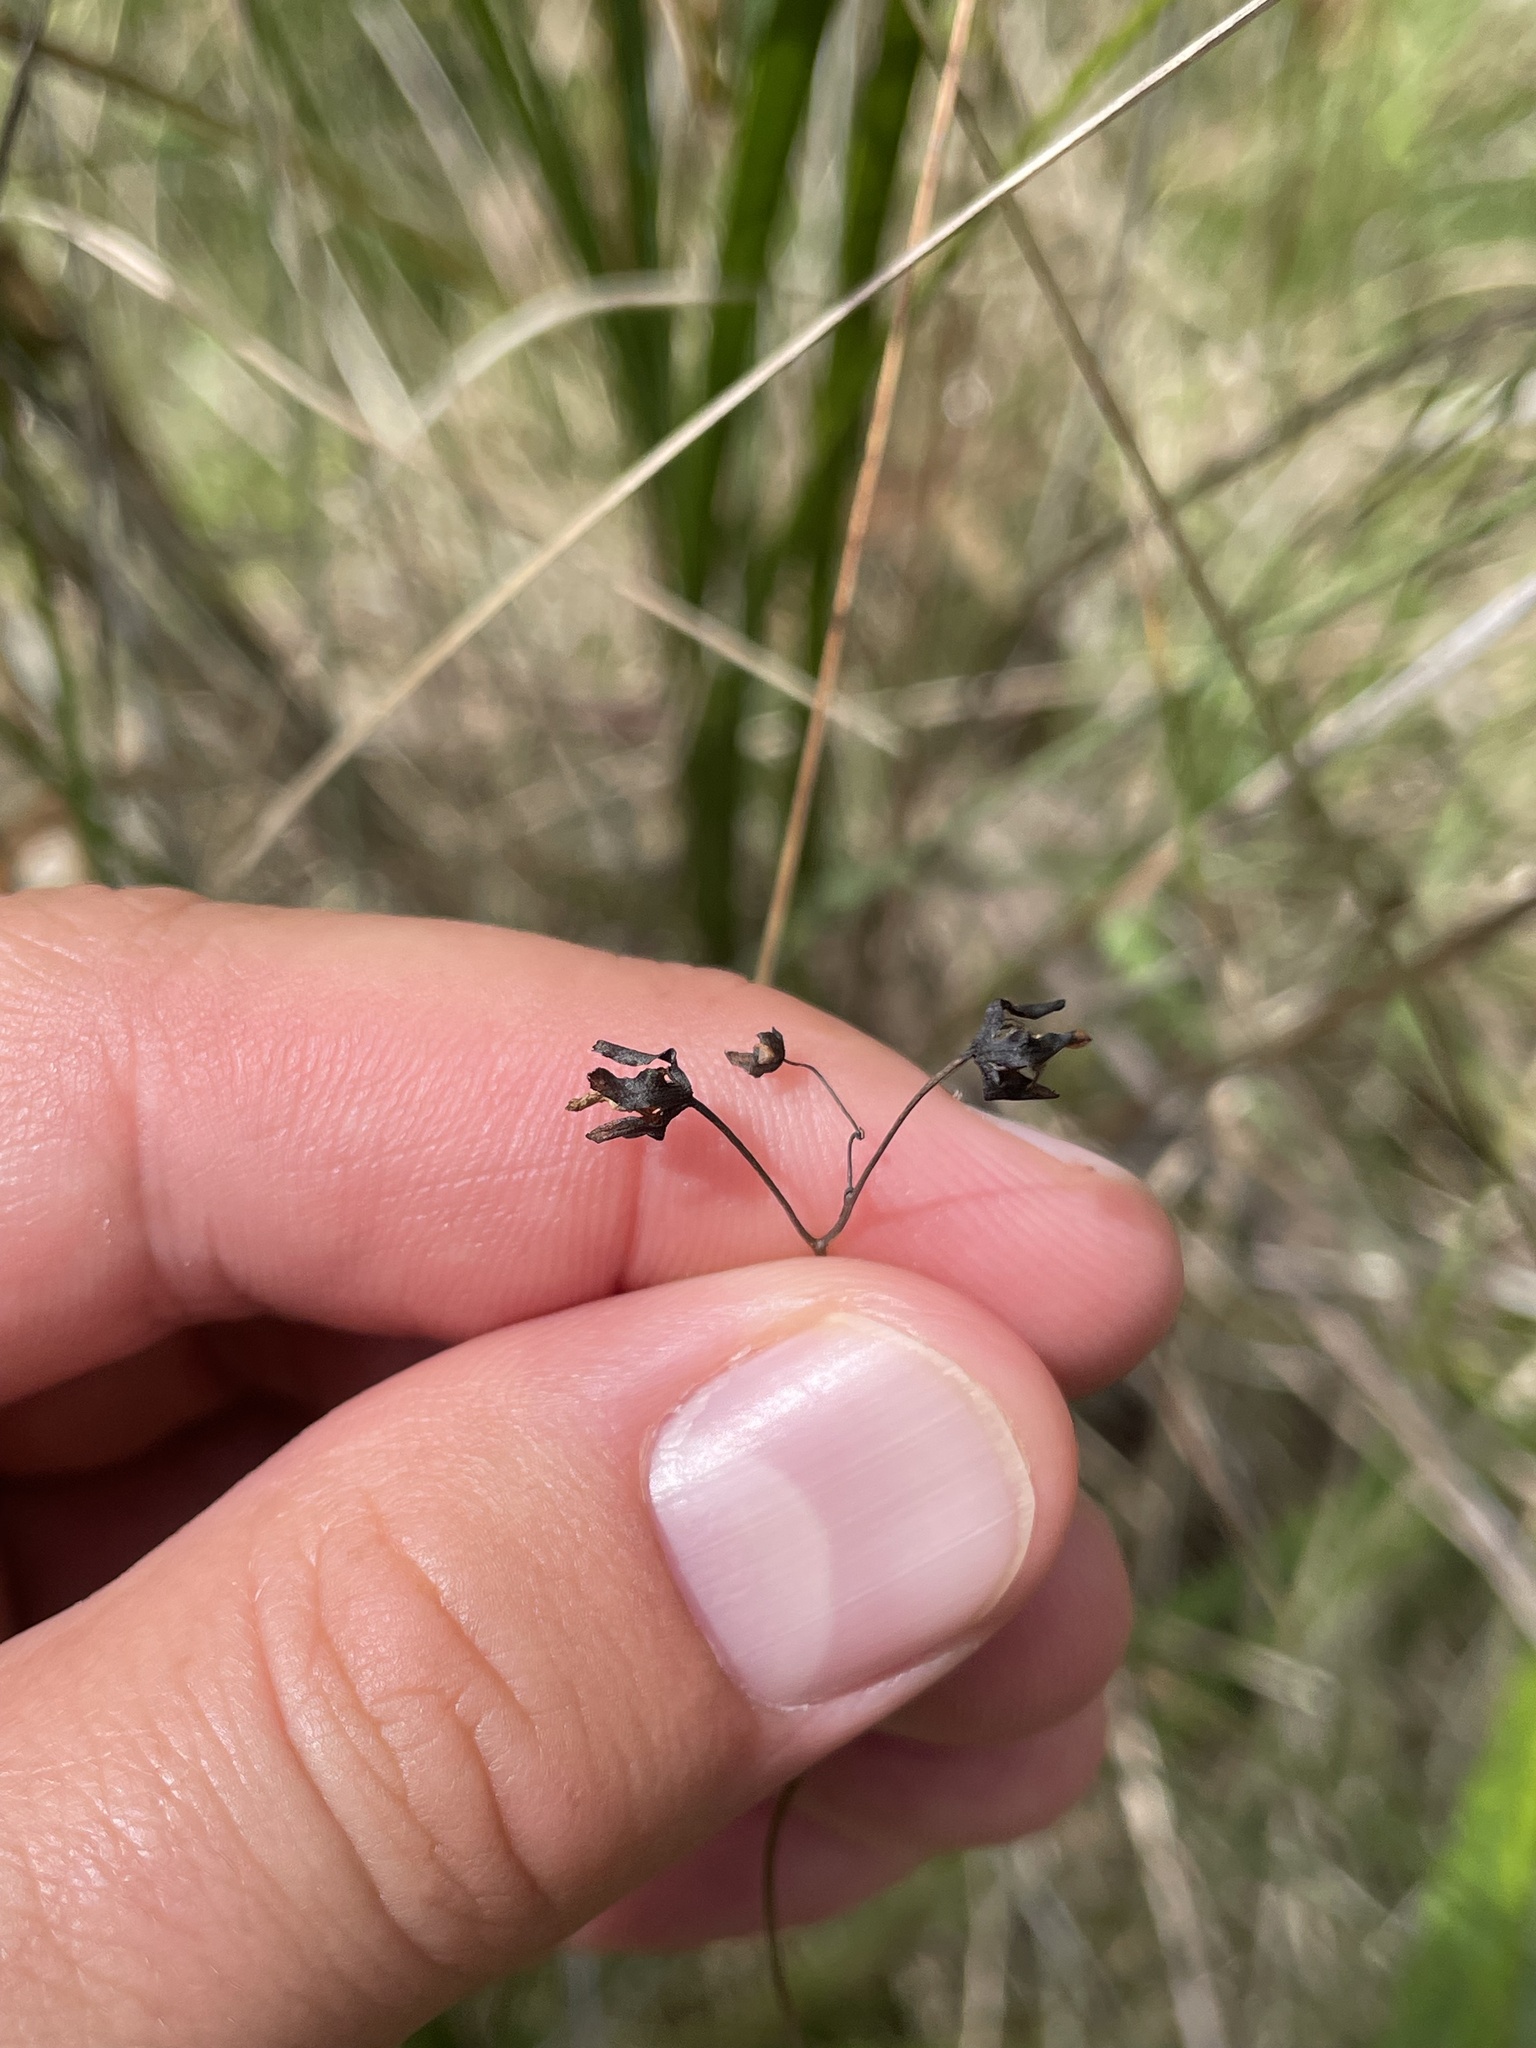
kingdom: Plantae
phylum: Tracheophyta
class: Magnoliopsida
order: Caryophyllales
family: Droseraceae
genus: Drosera
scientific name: Drosera peltata
